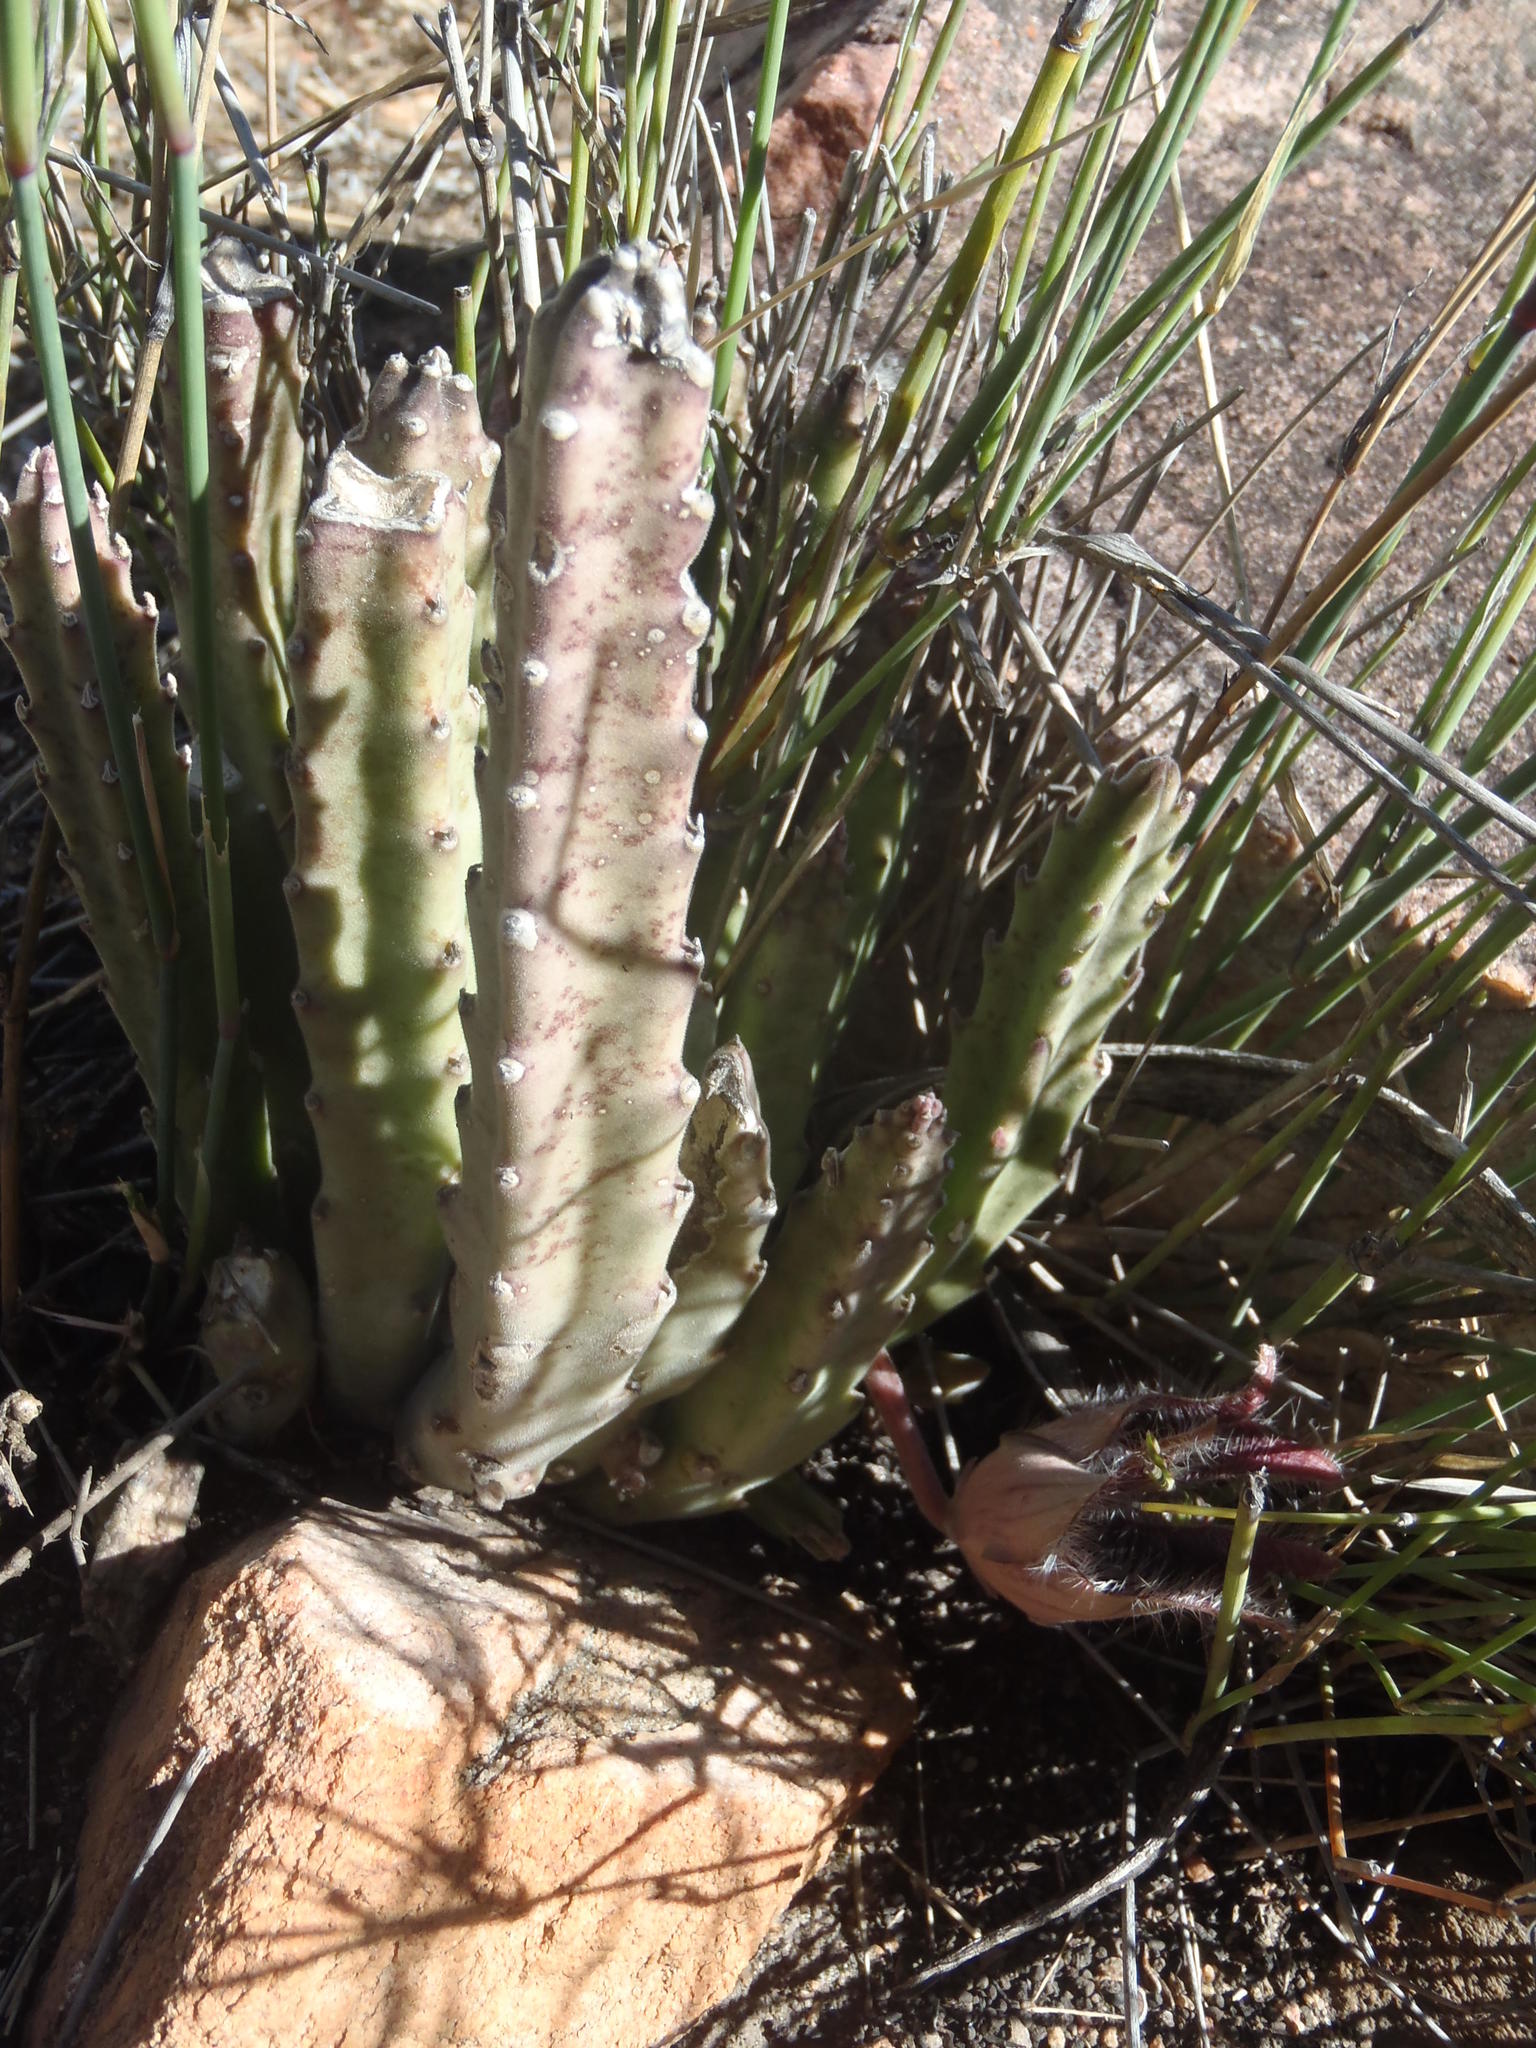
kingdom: Plantae
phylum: Tracheophyta
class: Magnoliopsida
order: Gentianales
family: Apocynaceae
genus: Ceropegia
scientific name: Ceropegia grandiflora
